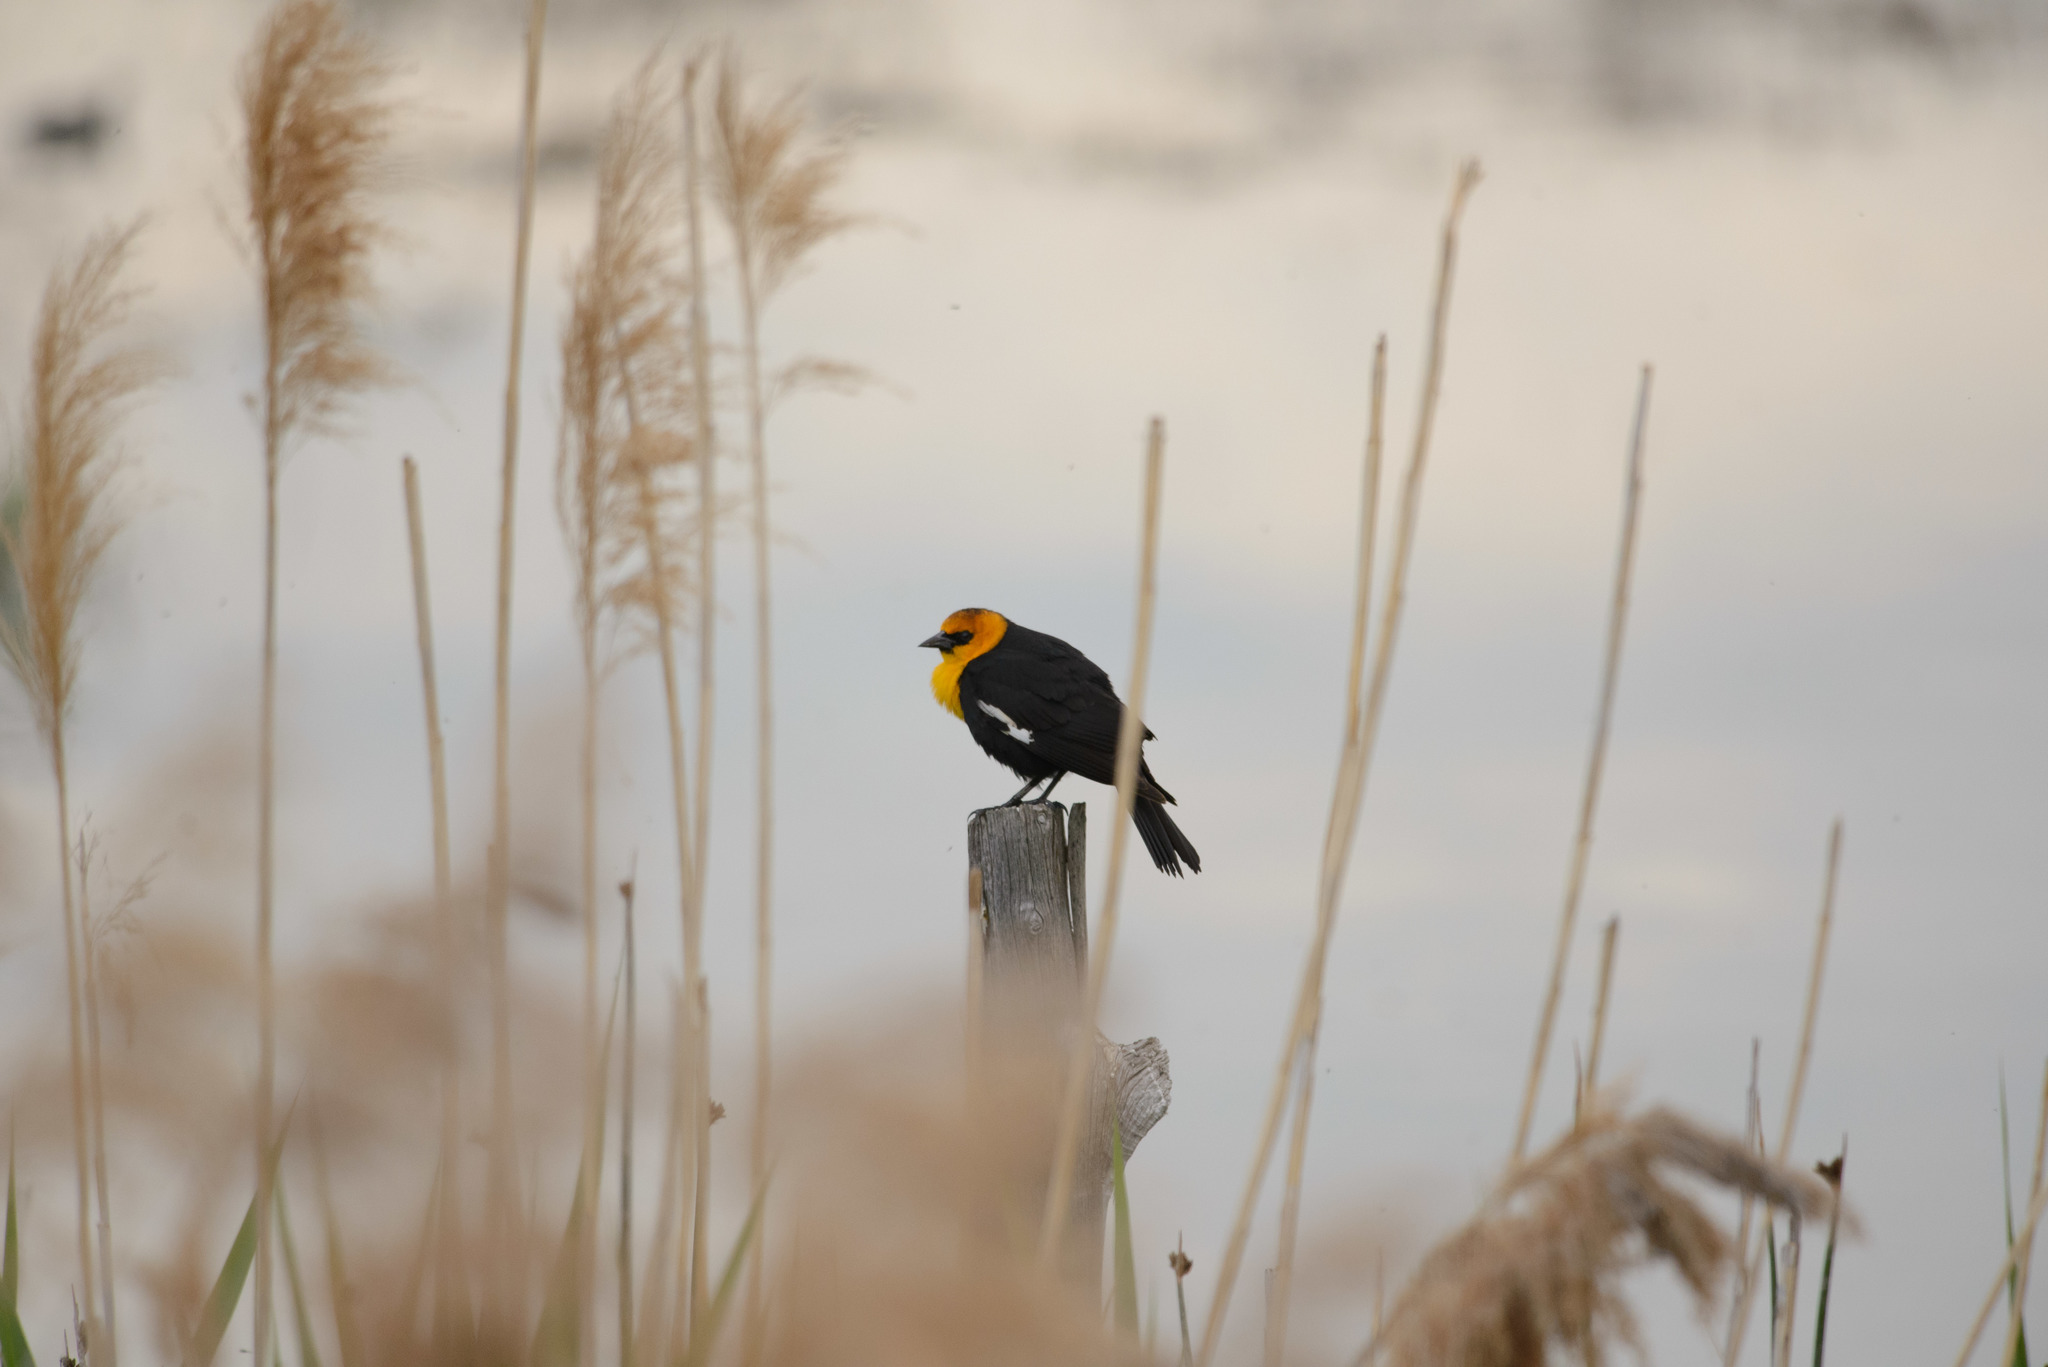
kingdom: Animalia
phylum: Chordata
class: Aves
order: Passeriformes
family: Icteridae
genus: Xanthocephalus
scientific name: Xanthocephalus xanthocephalus
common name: Yellow-headed blackbird
